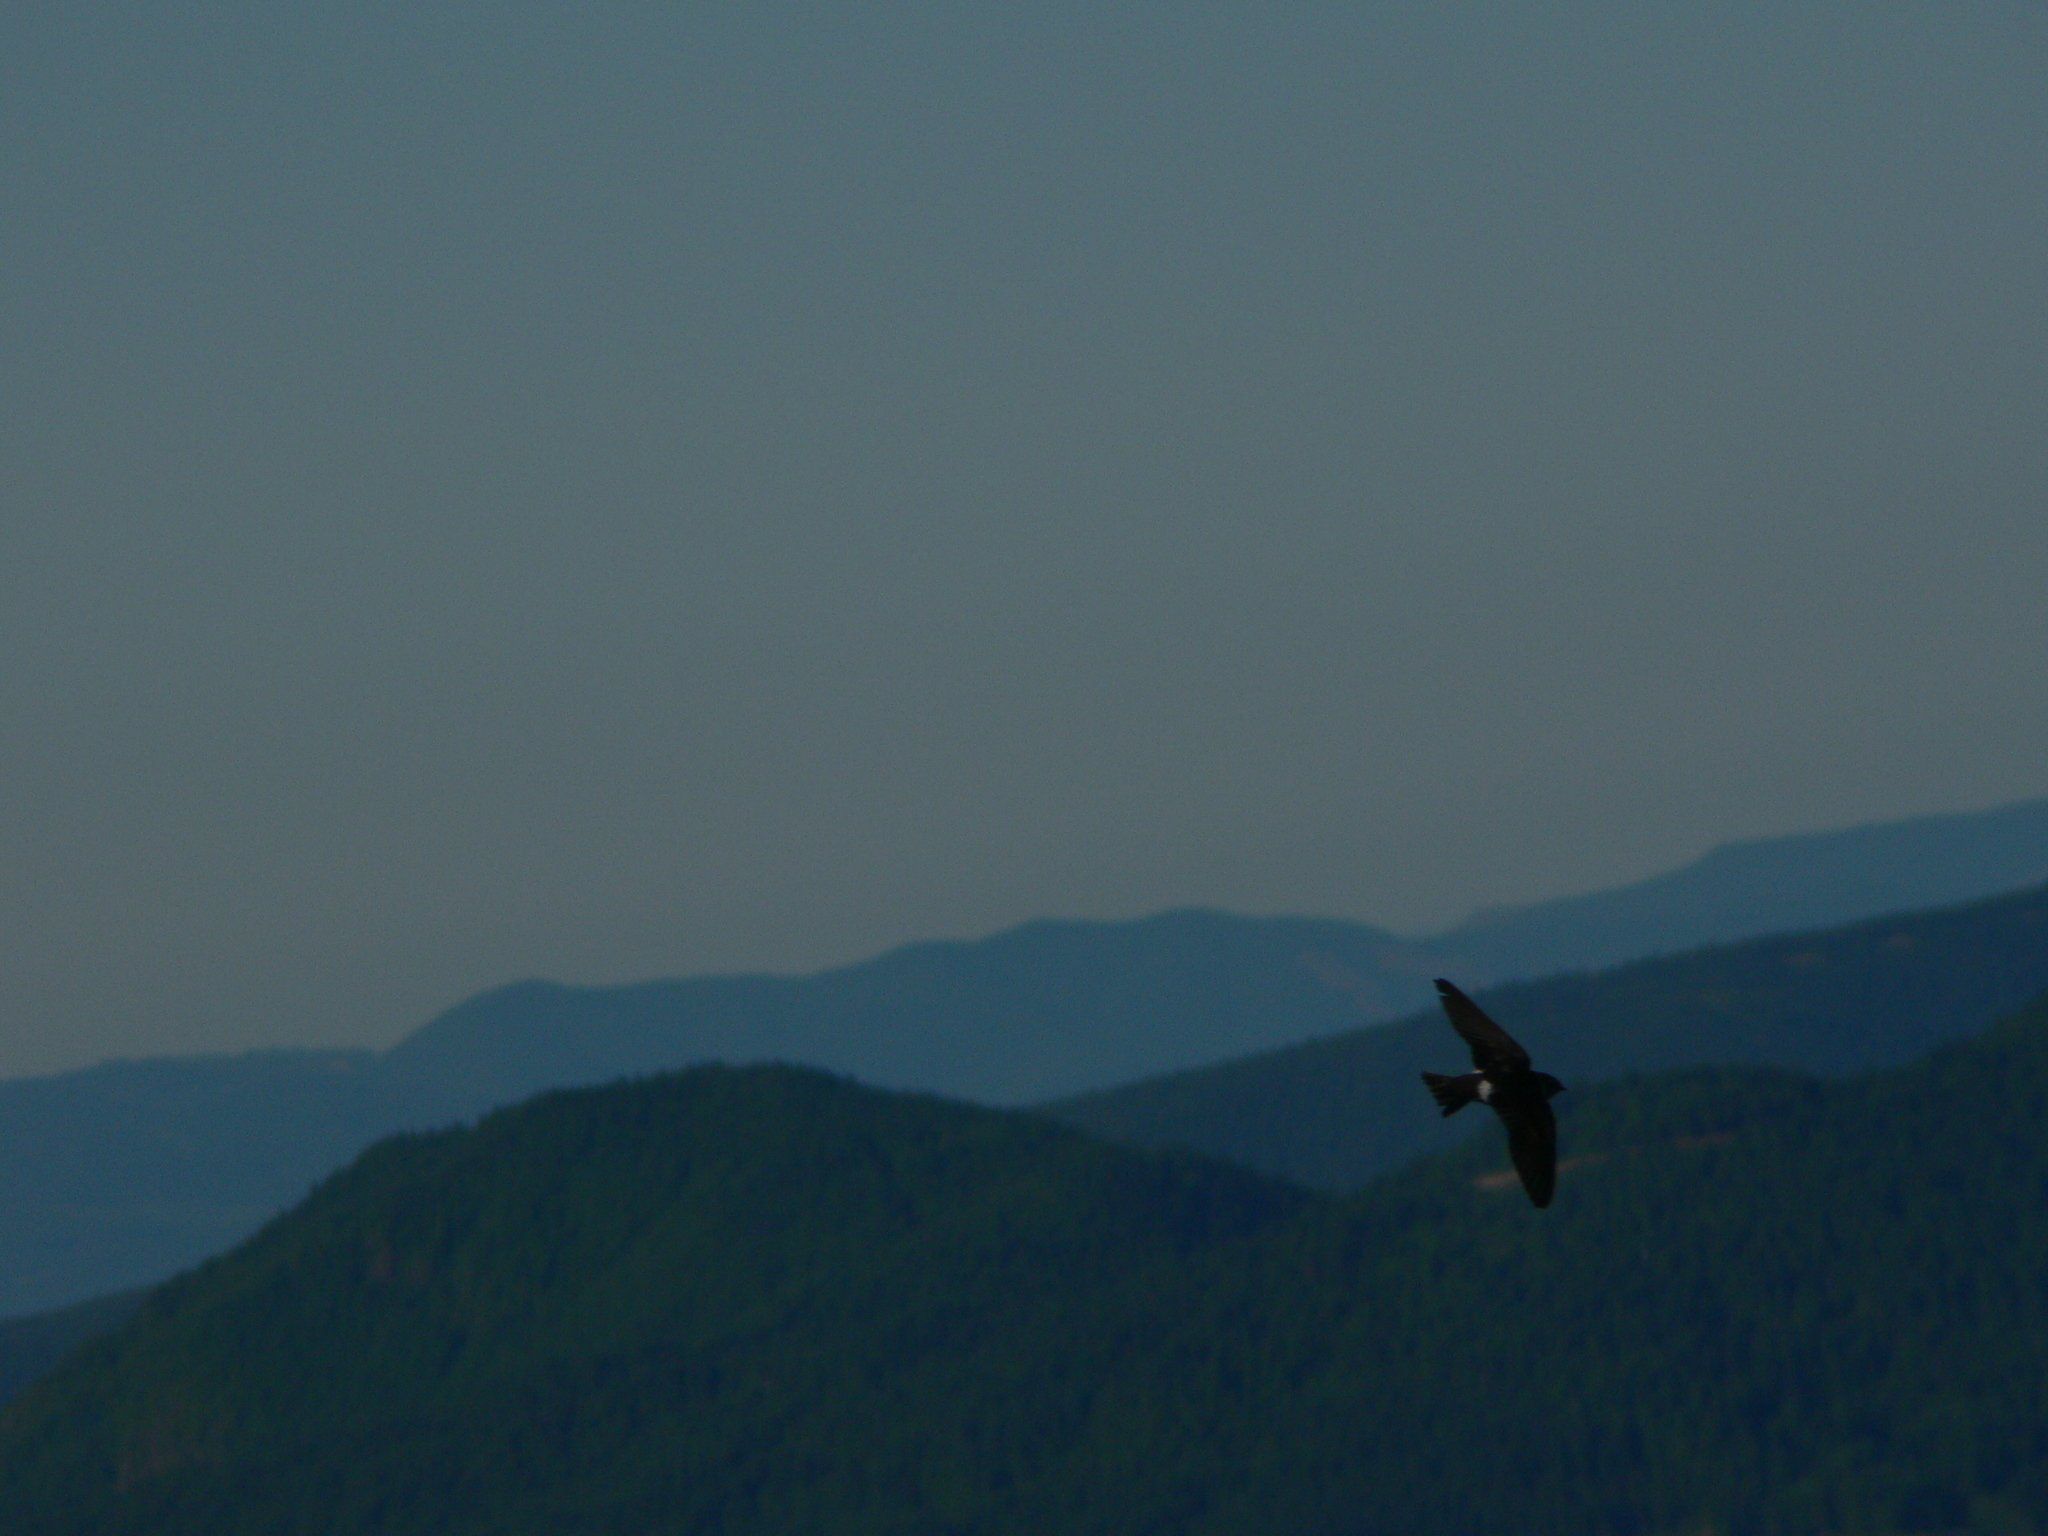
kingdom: Animalia
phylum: Chordata
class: Aves
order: Passeriformes
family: Hirundinidae
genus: Tachycineta
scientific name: Tachycineta thalassina
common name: Violet-green swallow
